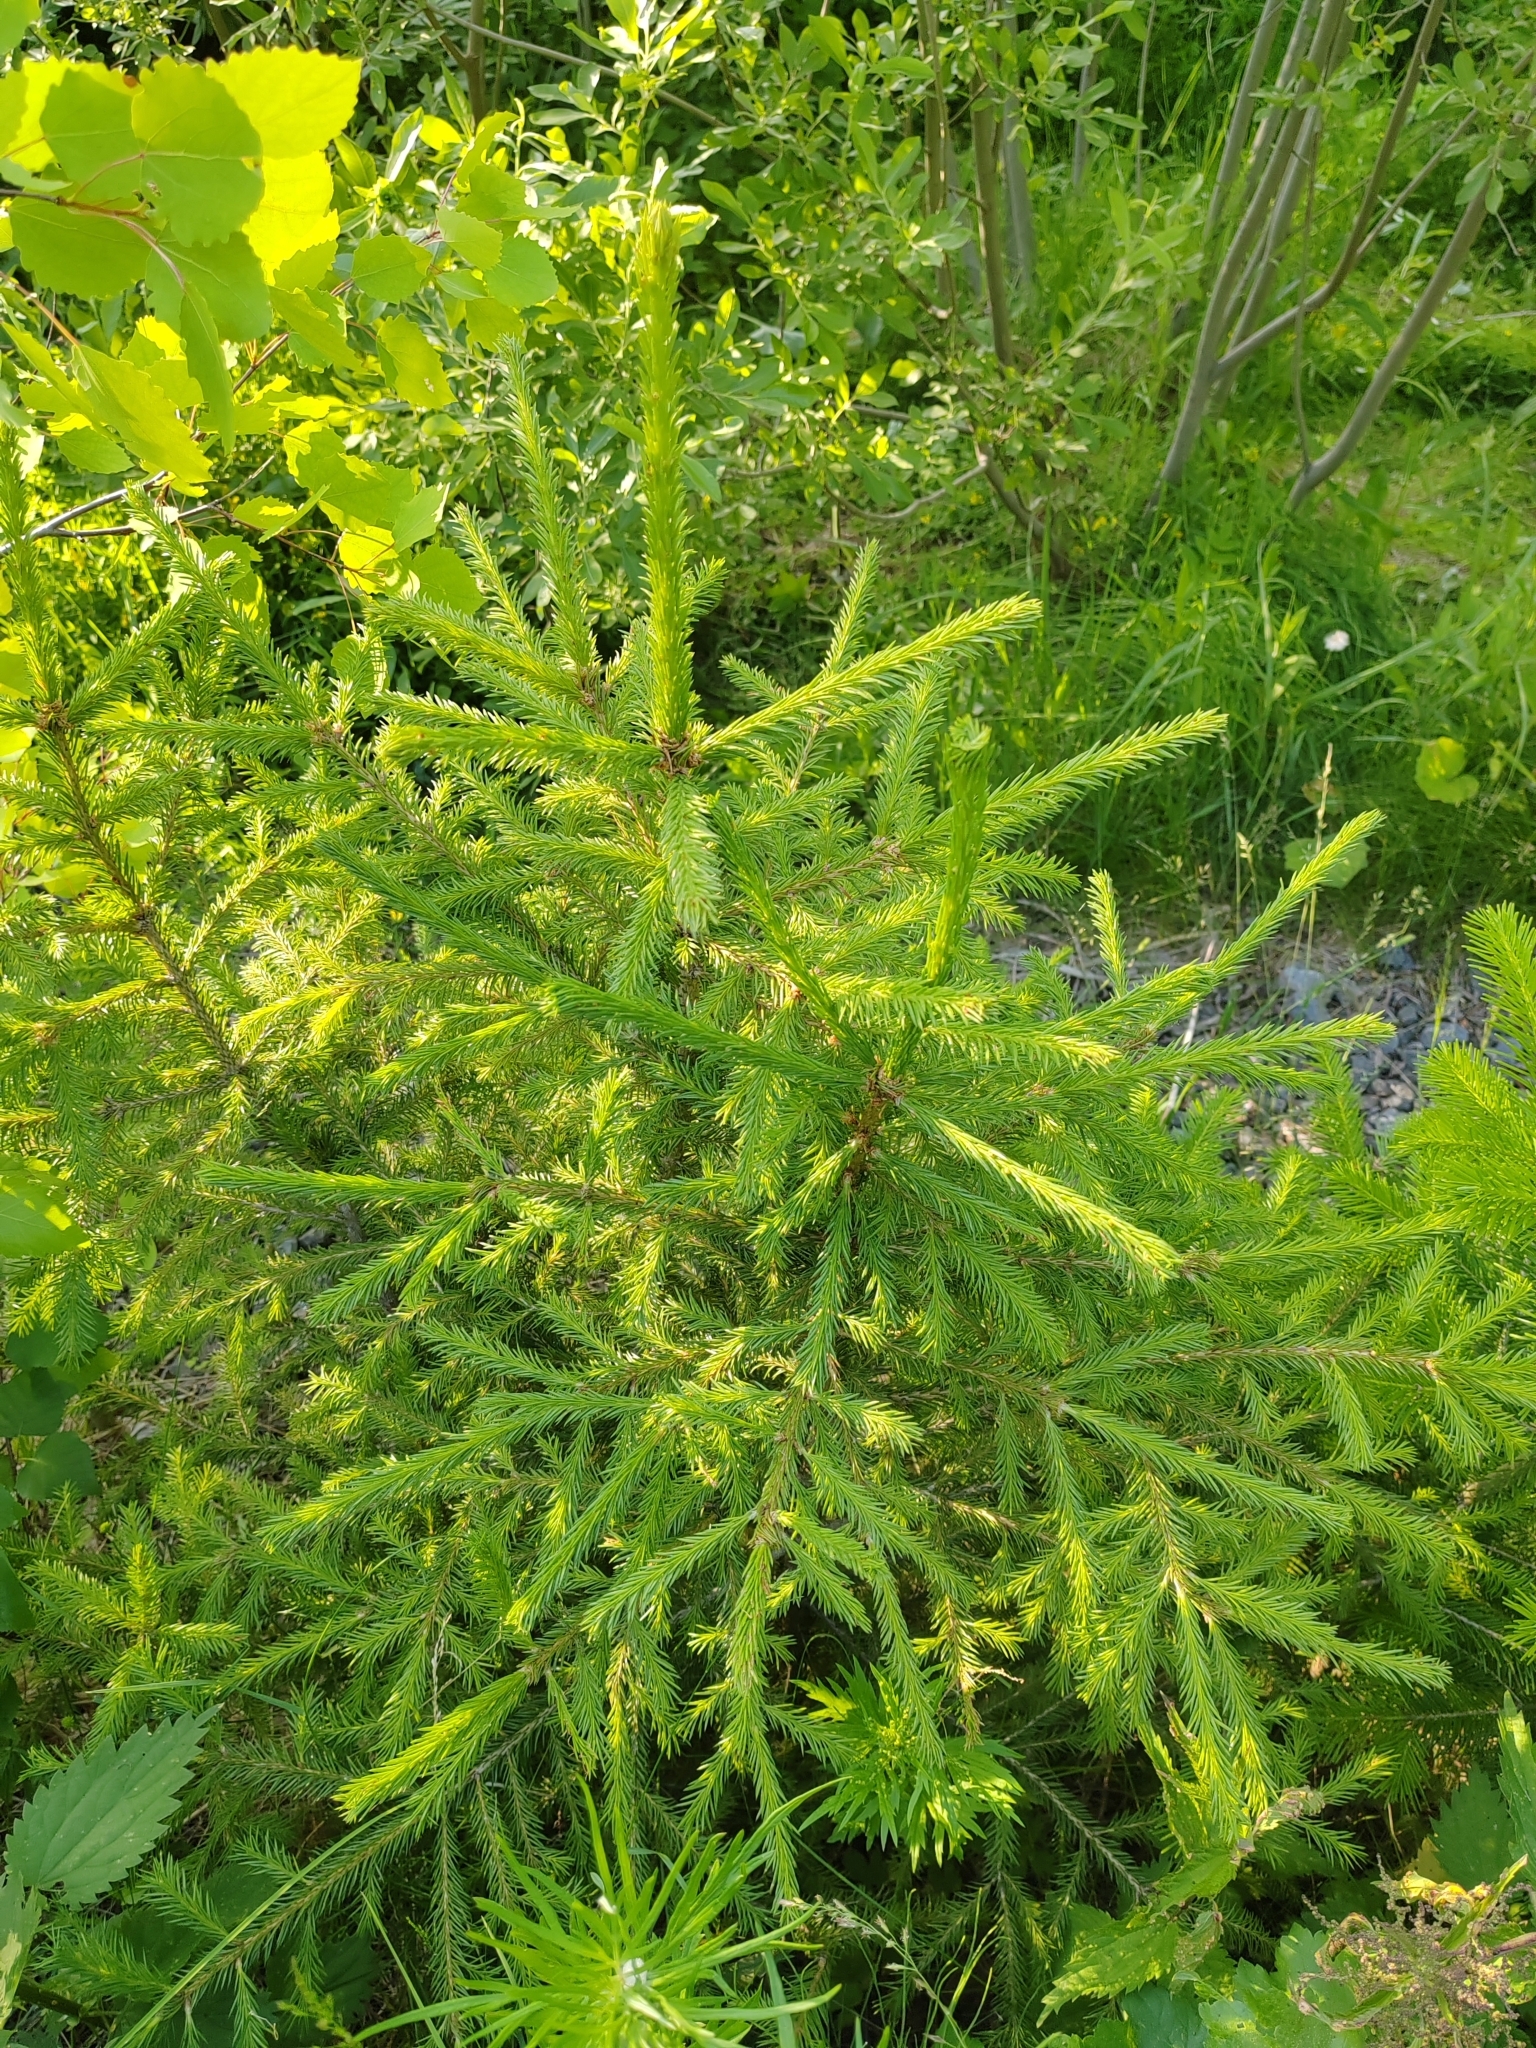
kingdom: Plantae
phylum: Tracheophyta
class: Pinopsida
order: Pinales
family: Pinaceae
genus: Picea
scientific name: Picea obovata
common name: Siberian spruce
